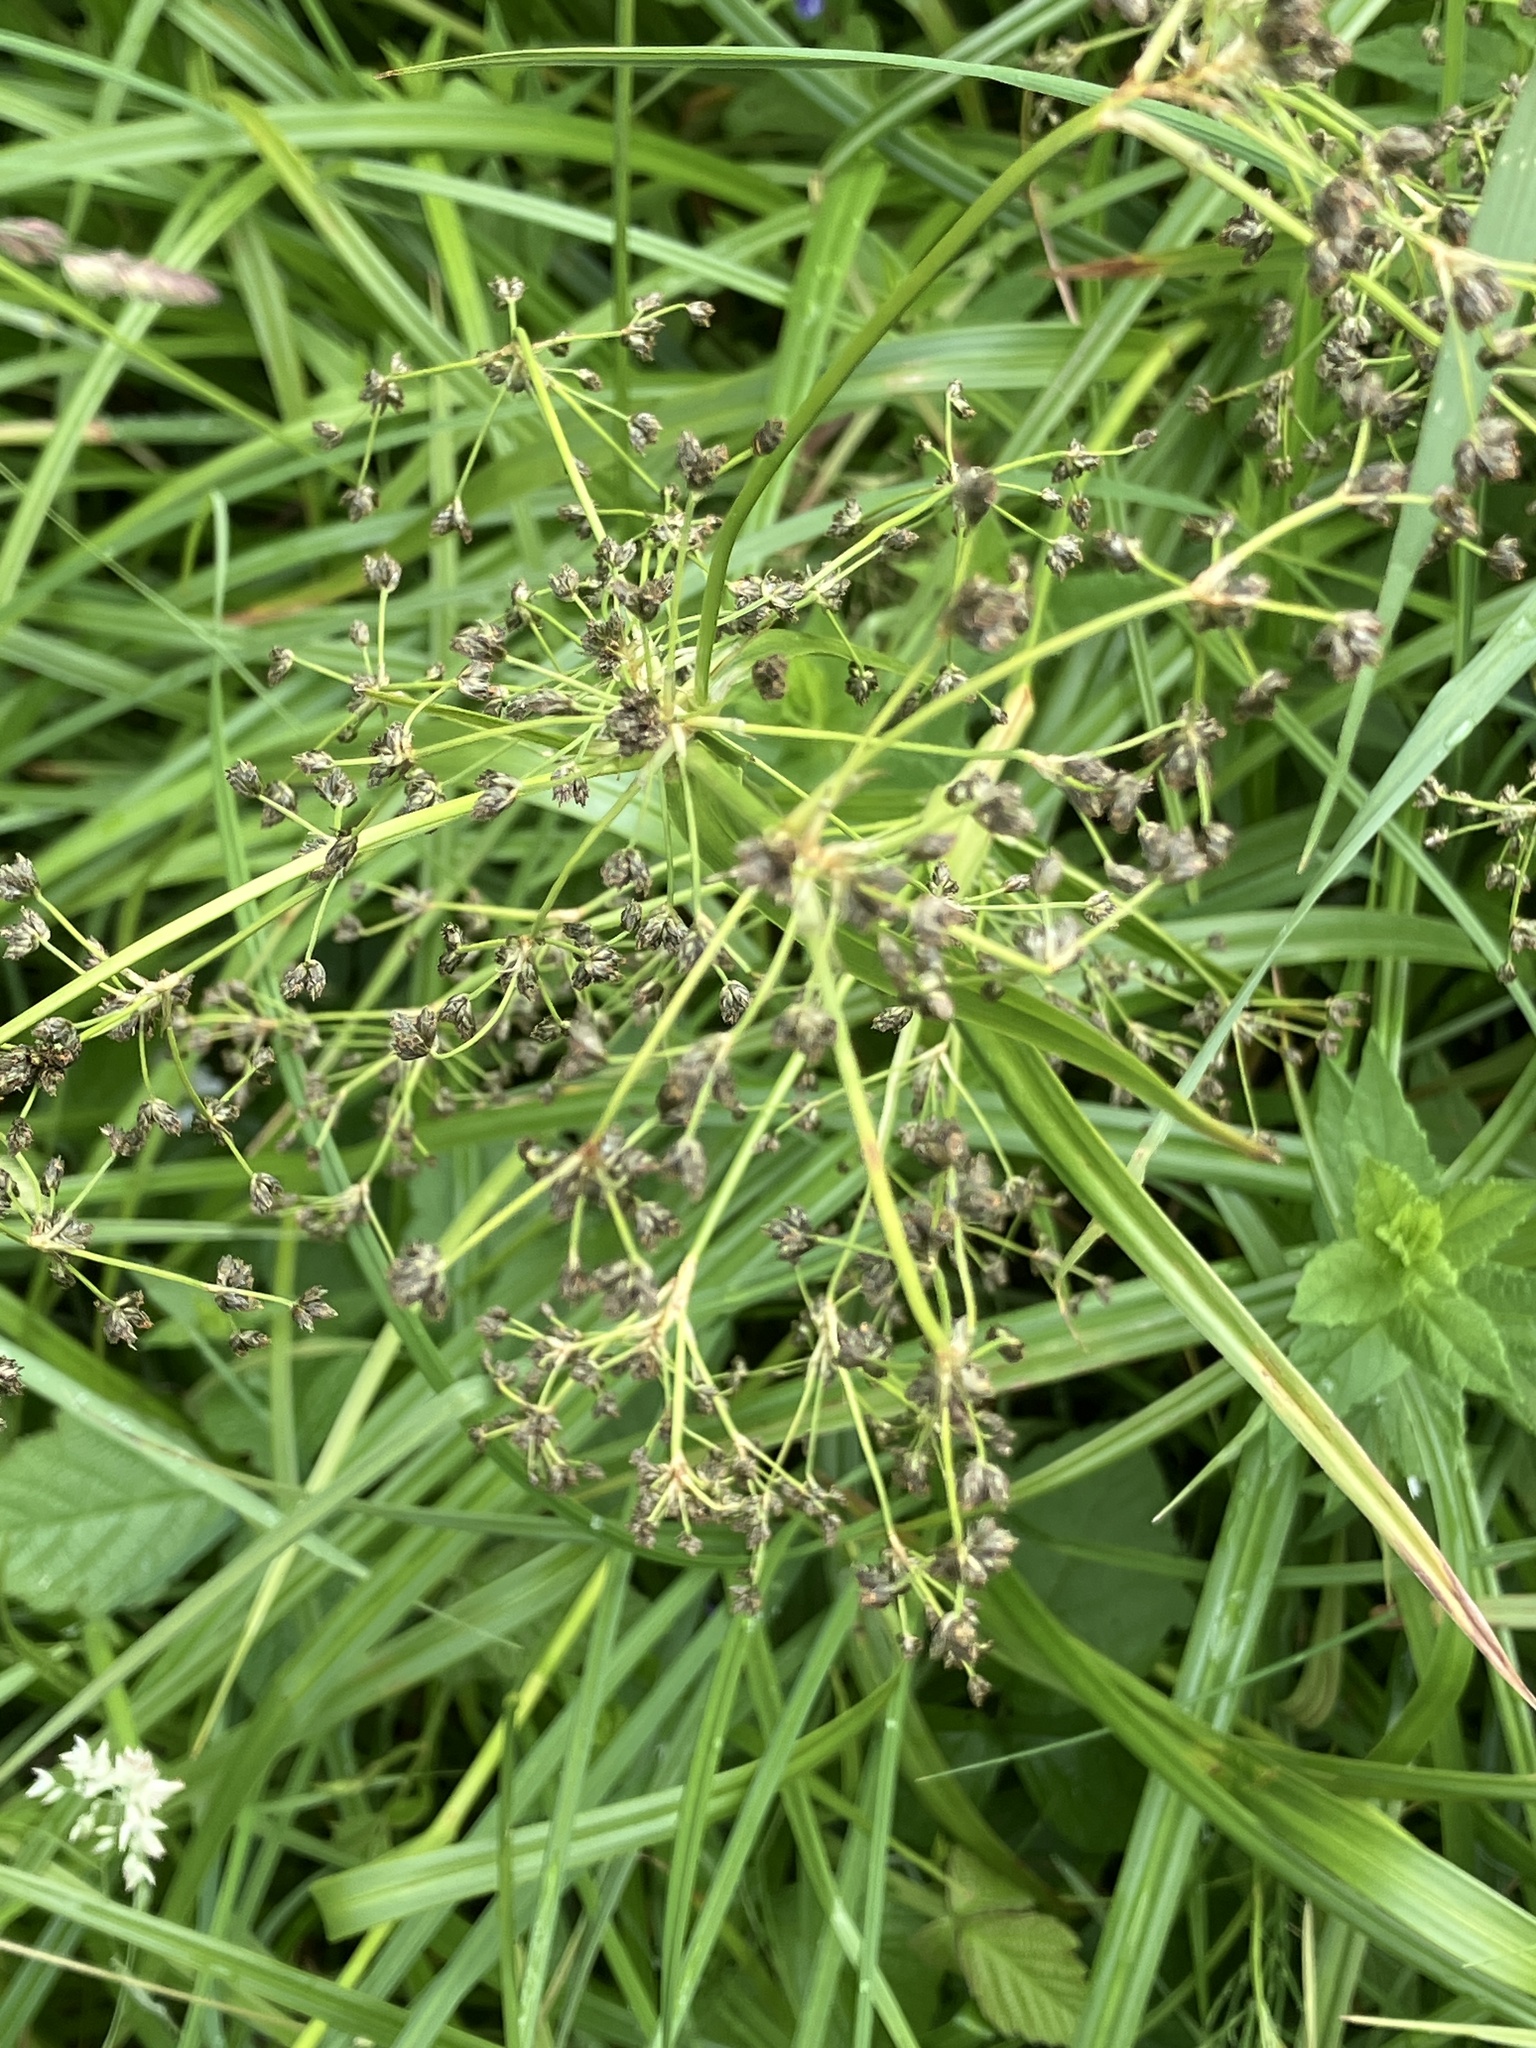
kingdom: Plantae
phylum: Tracheophyta
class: Liliopsida
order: Poales
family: Cyperaceae
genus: Scirpus
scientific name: Scirpus sylvaticus
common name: Wood club-rush
